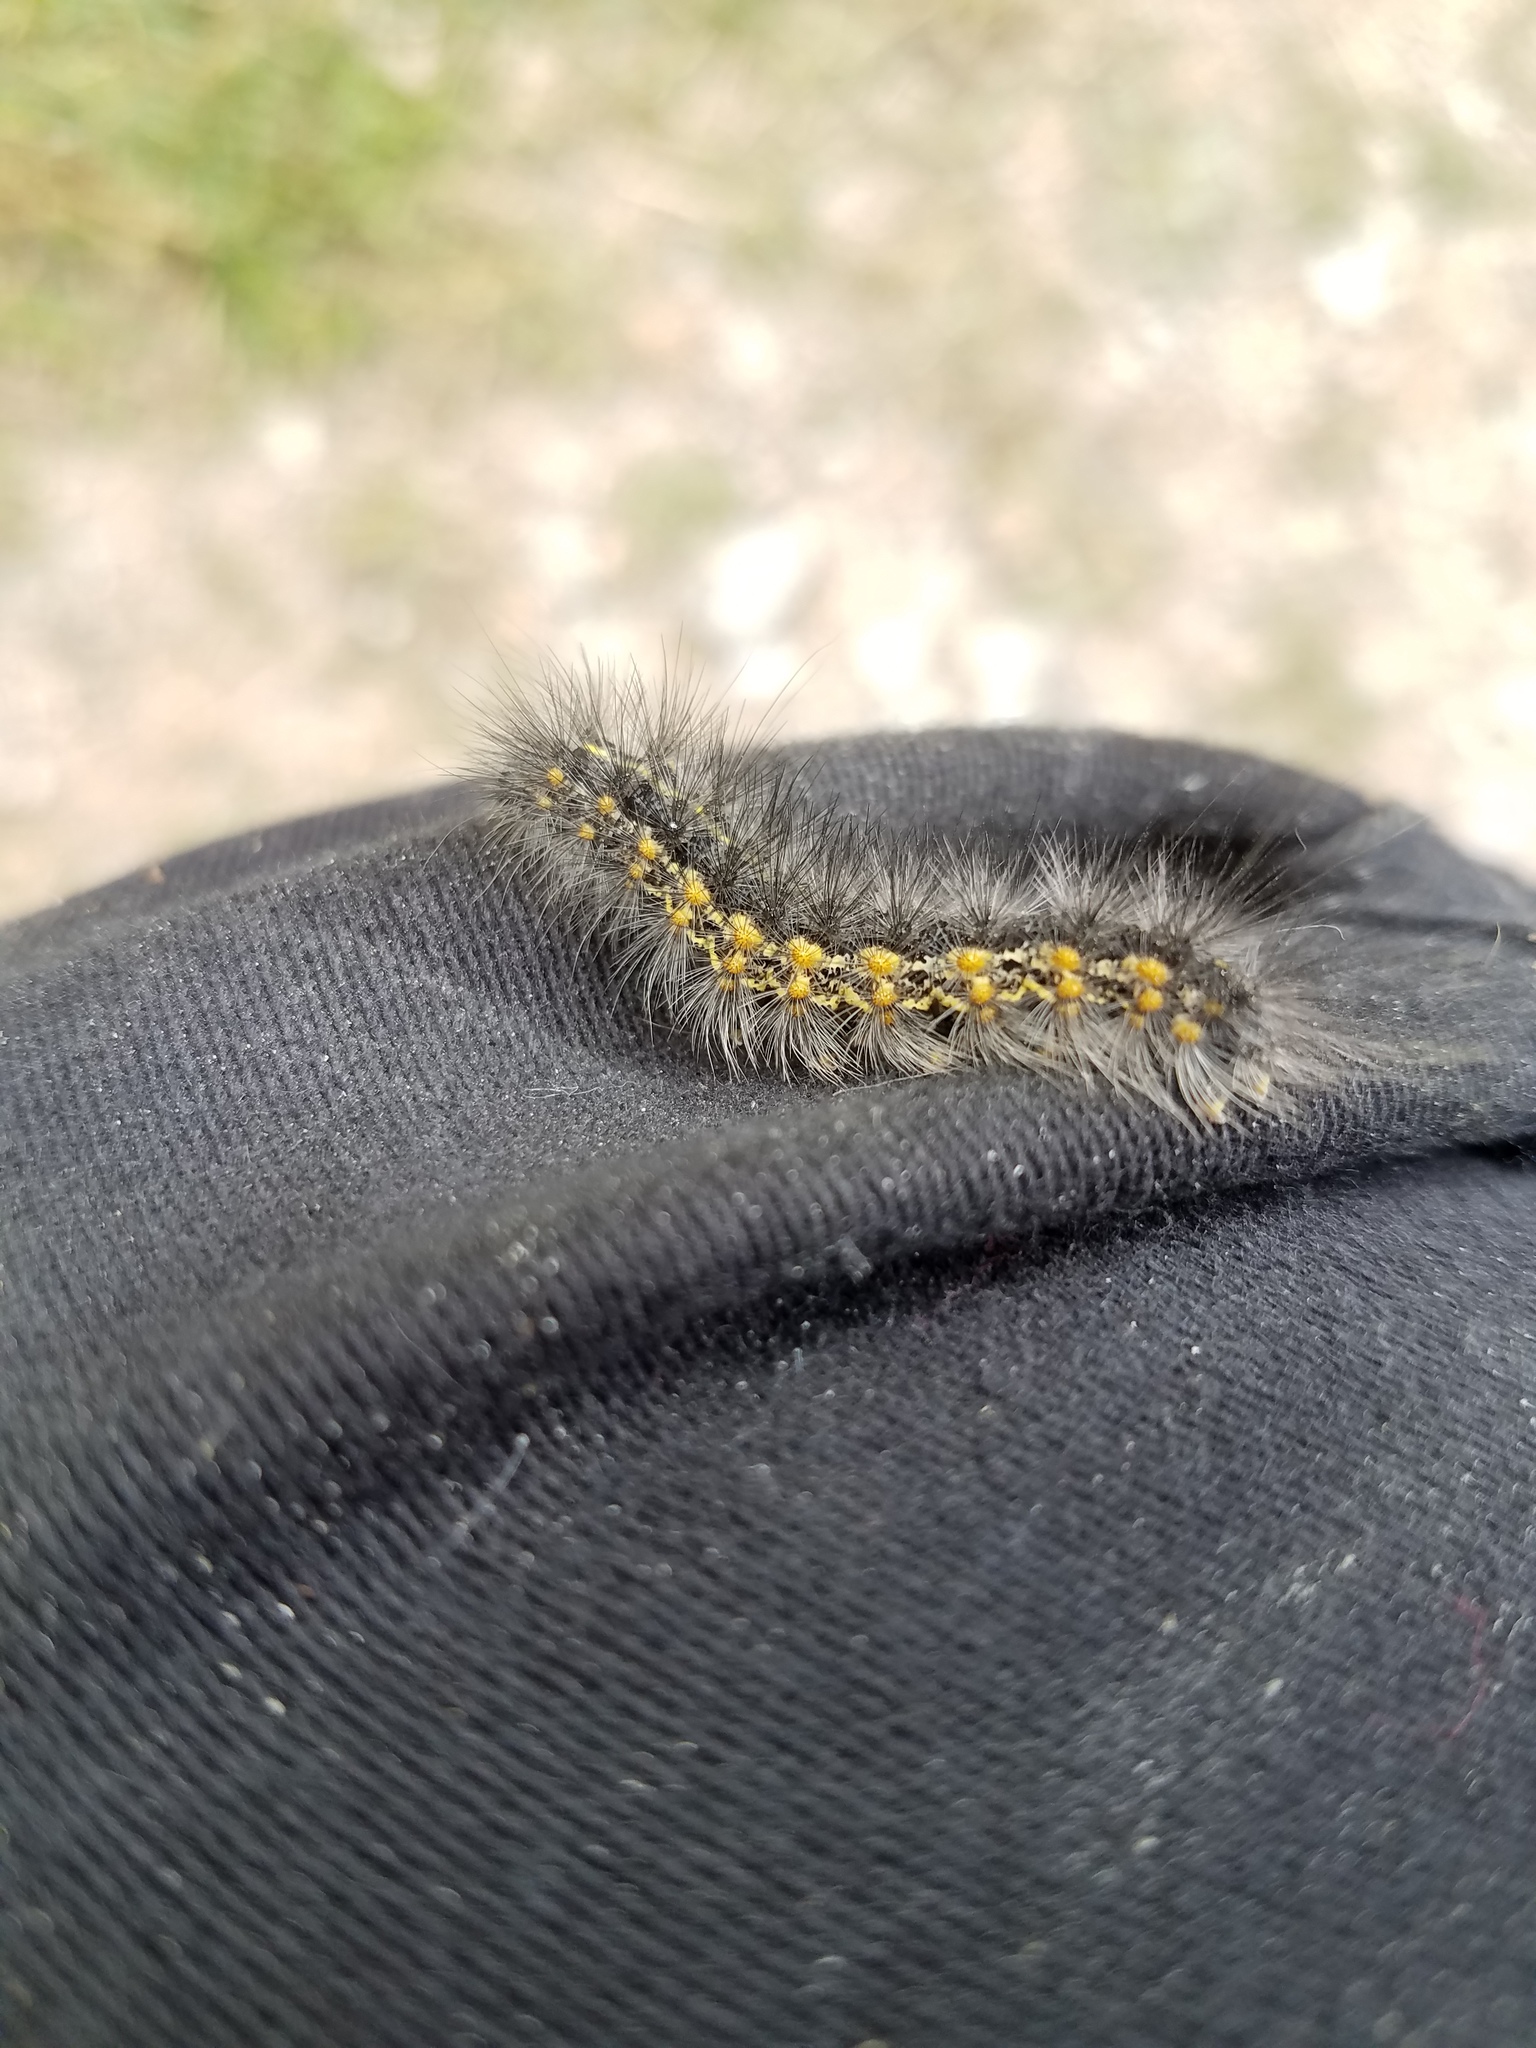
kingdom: Animalia
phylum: Arthropoda
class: Insecta
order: Lepidoptera
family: Erebidae
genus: Estigmene
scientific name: Estigmene acrea
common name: Salt marsh moth
